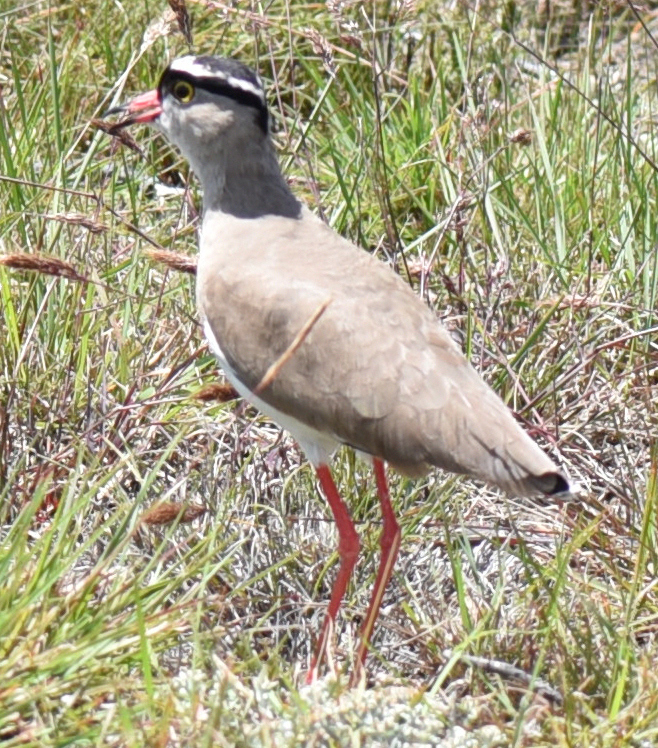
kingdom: Animalia
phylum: Chordata
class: Aves
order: Charadriiformes
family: Charadriidae
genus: Vanellus
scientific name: Vanellus coronatus
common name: Crowned lapwing
